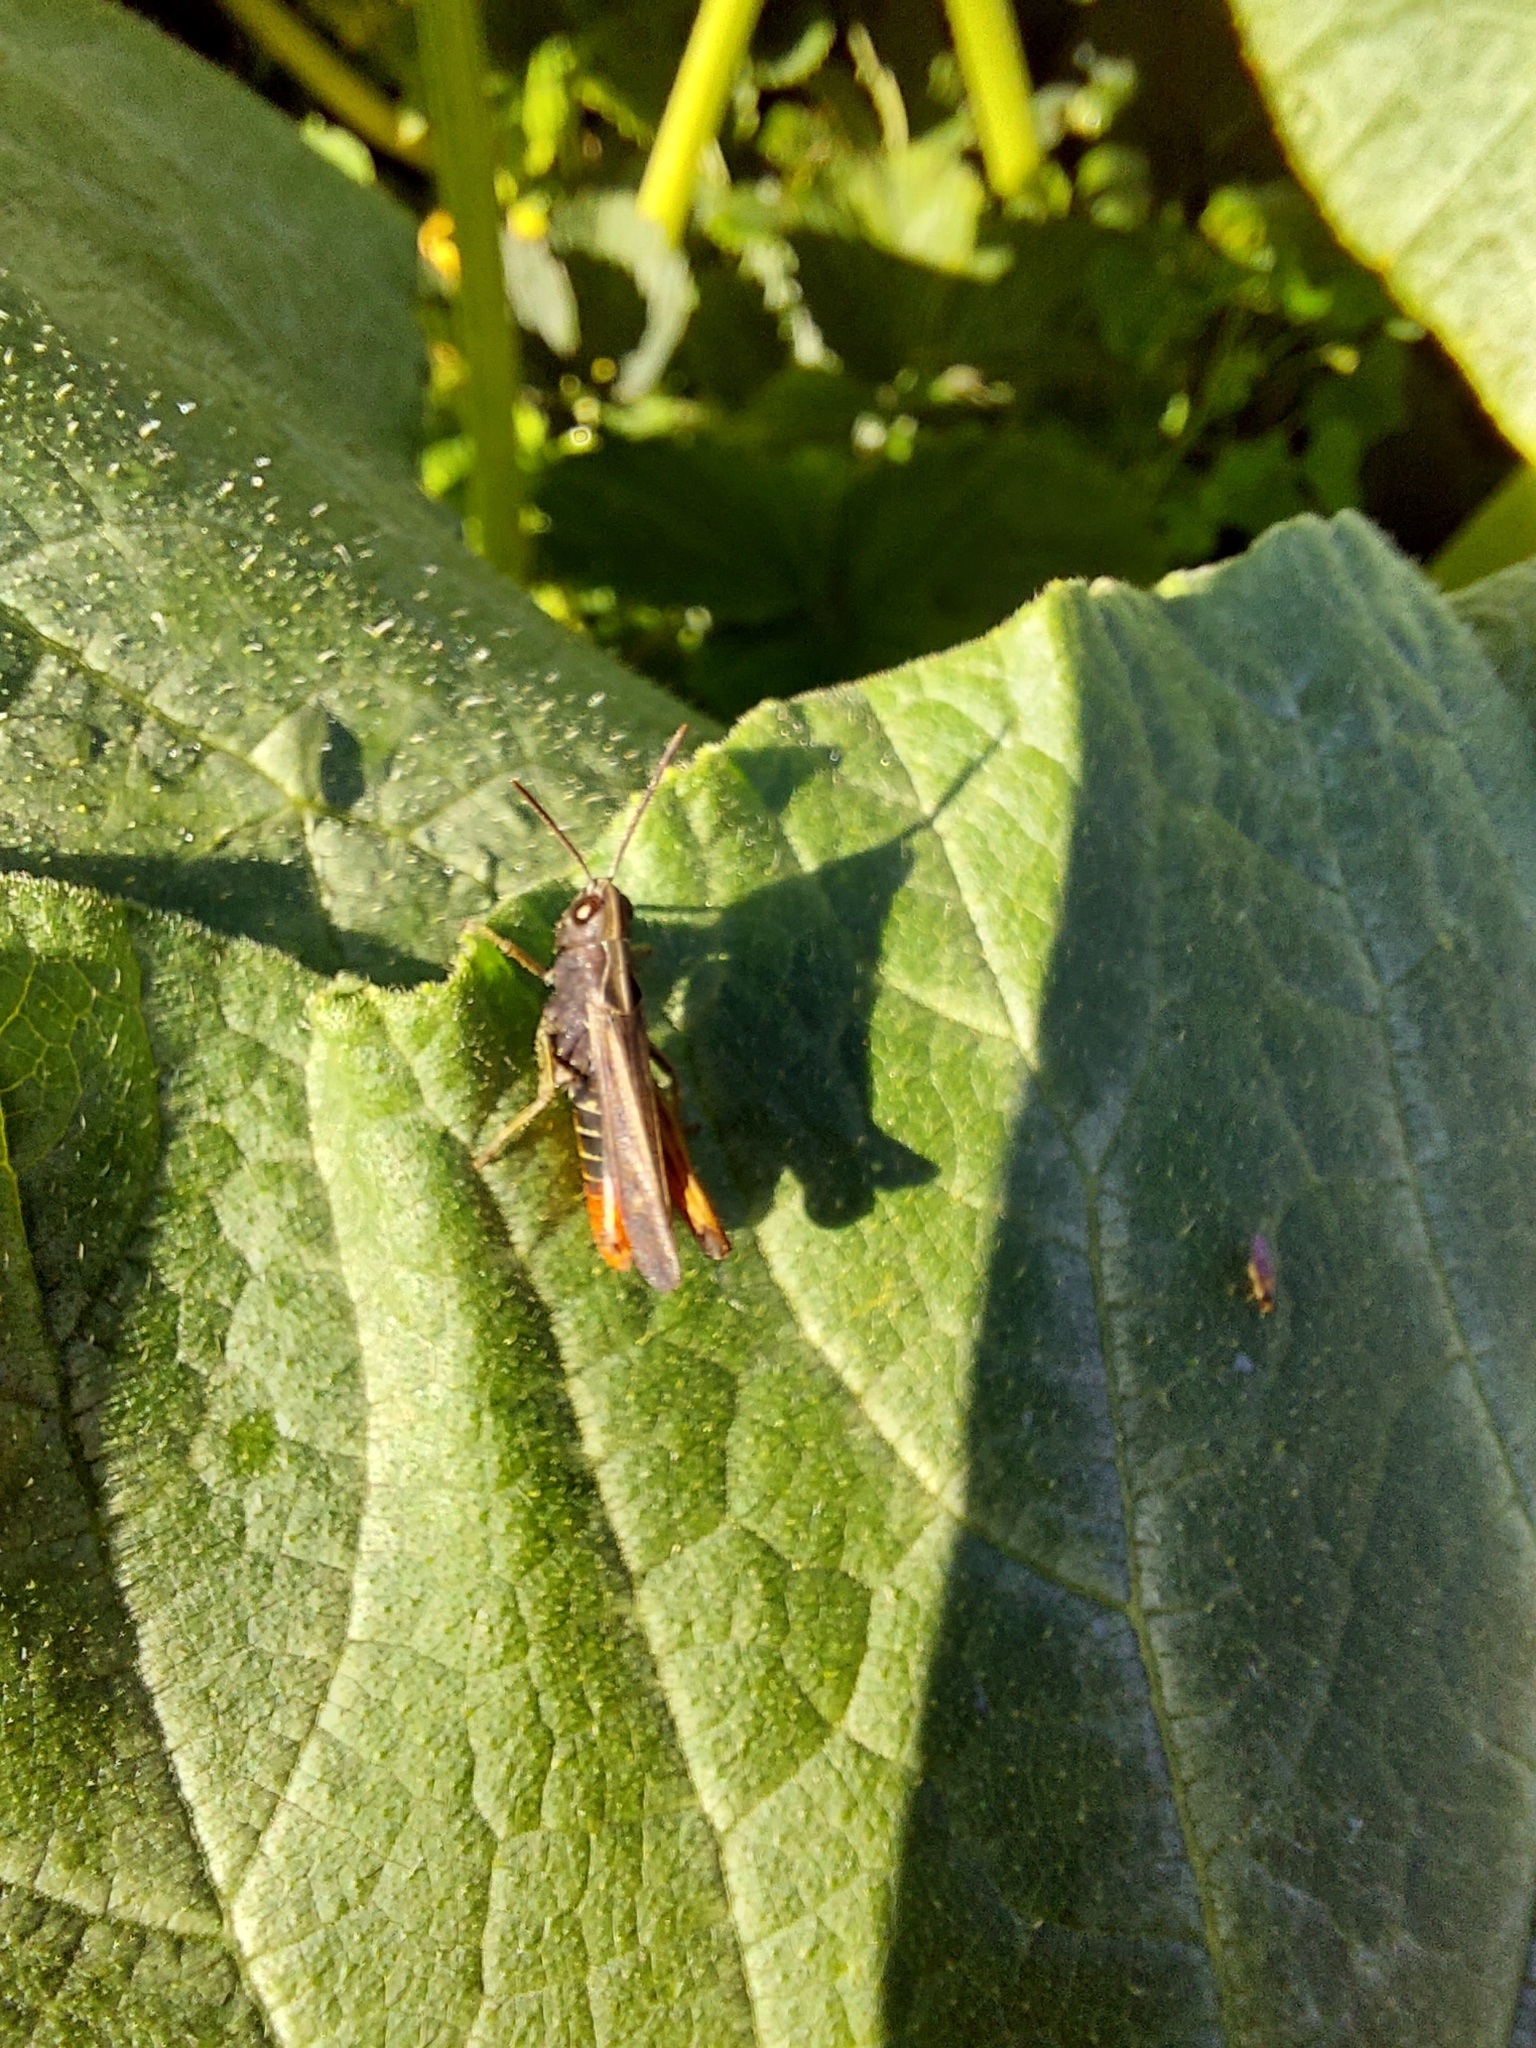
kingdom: Animalia
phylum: Arthropoda
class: Insecta
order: Orthoptera
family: Acrididae
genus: Omocestus
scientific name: Omocestus rufipes
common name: Woodland grasshopper
